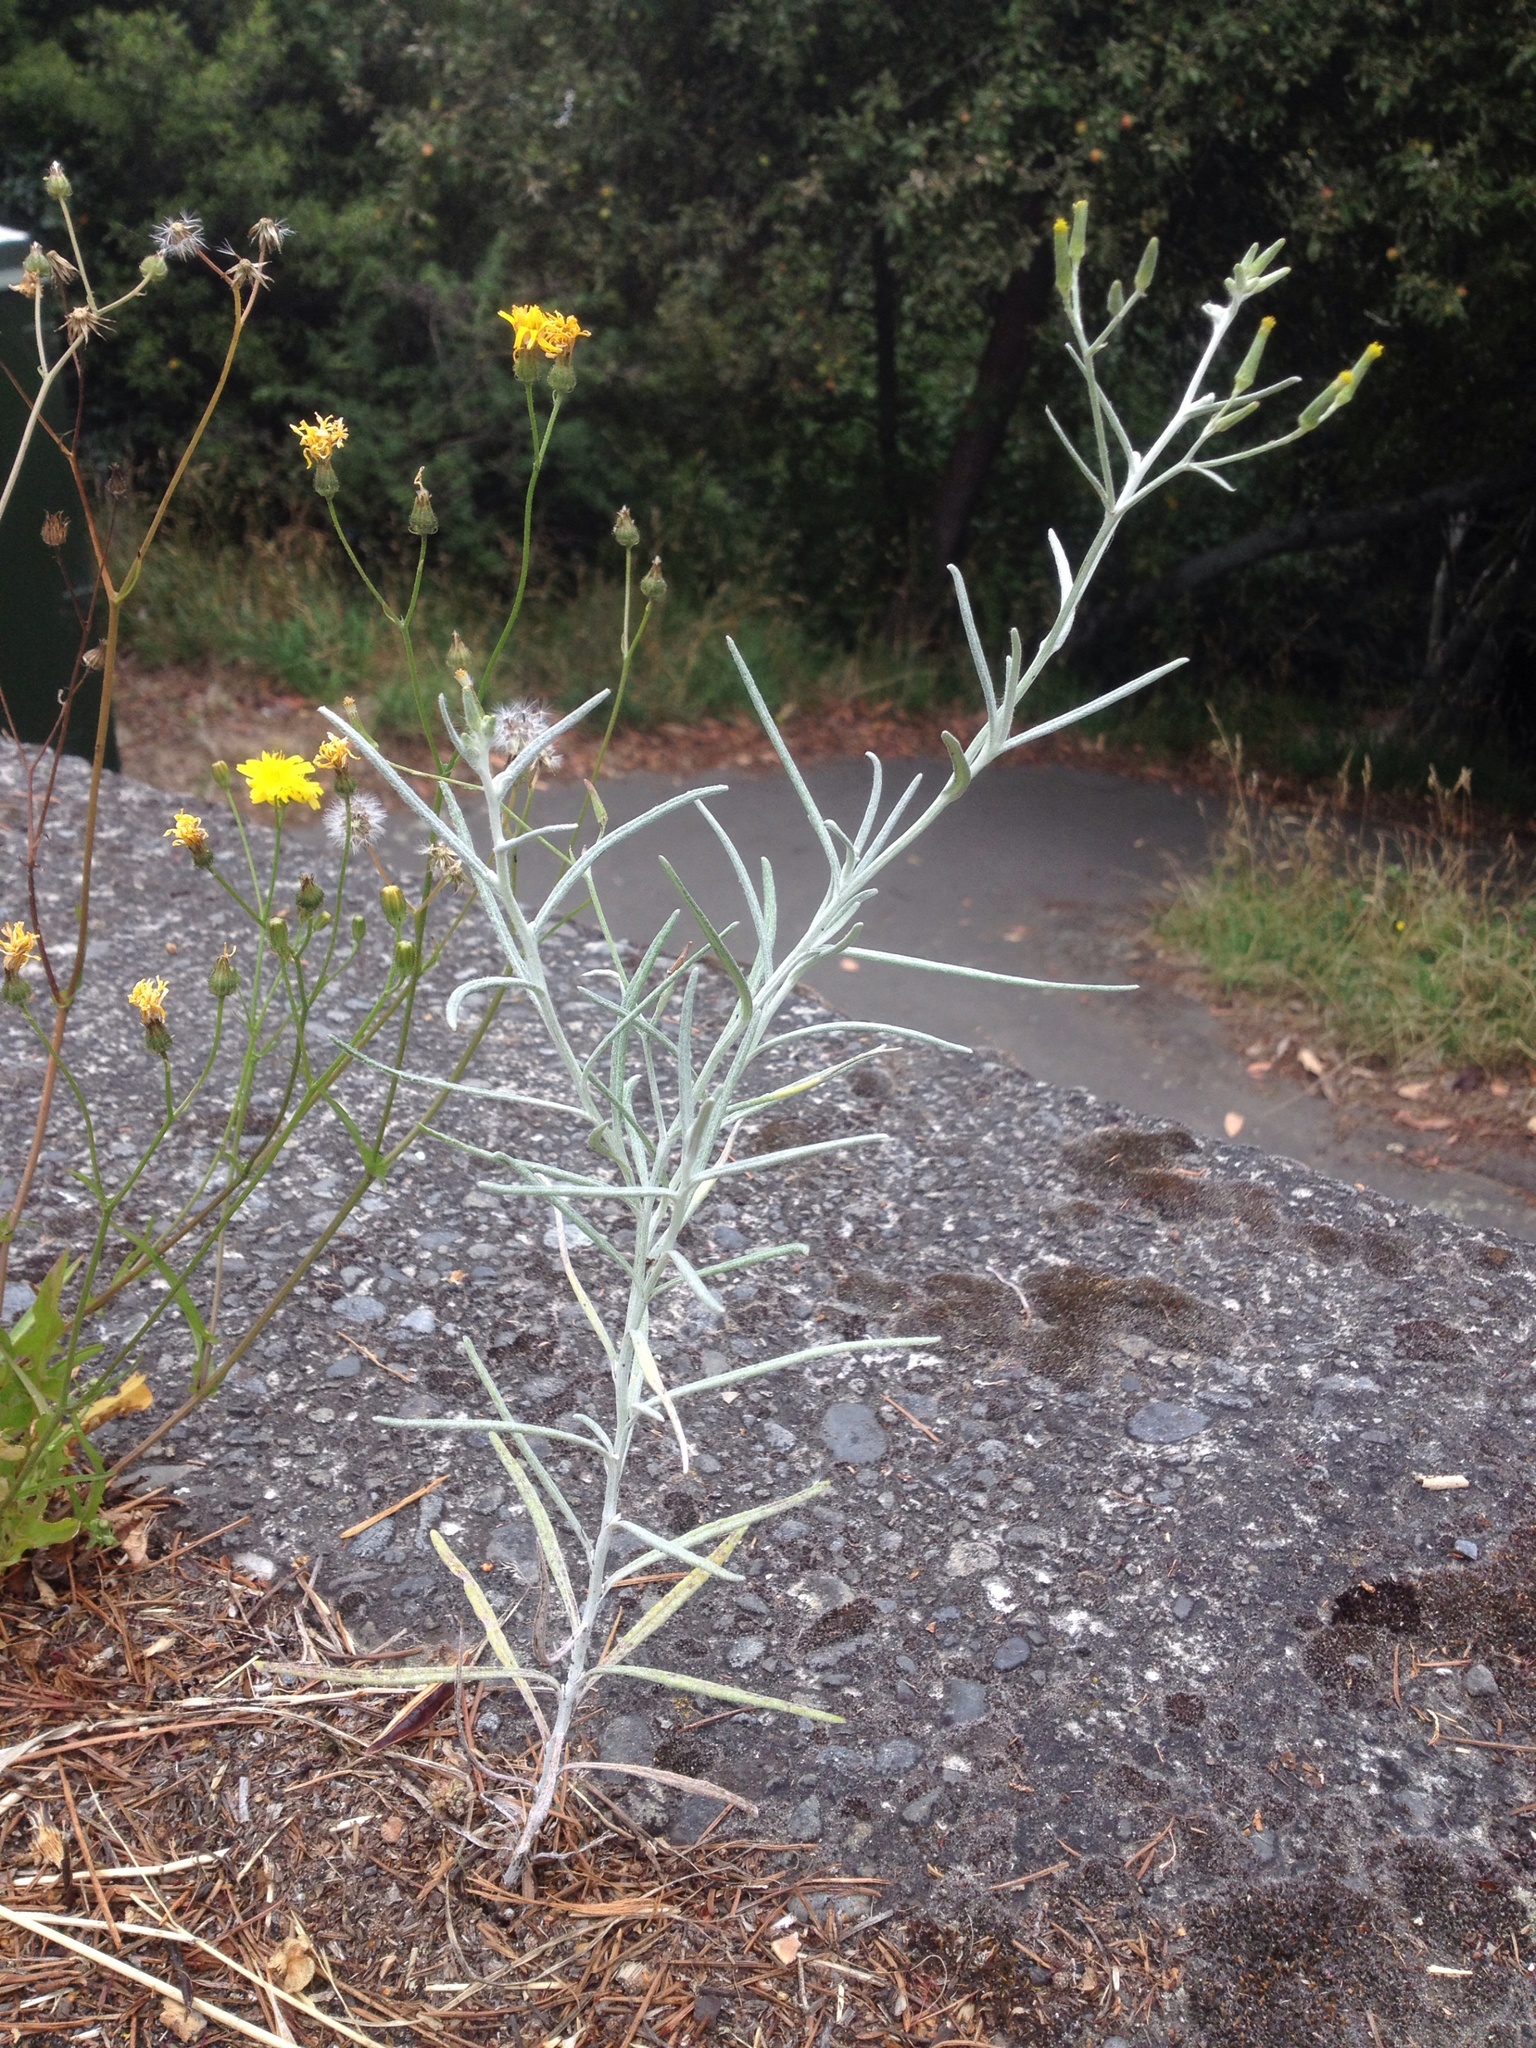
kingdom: Plantae
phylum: Tracheophyta
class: Magnoliopsida
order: Asterales
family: Asteraceae
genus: Senecio
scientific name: Senecio quadridentatus
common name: Cotton fireweed
